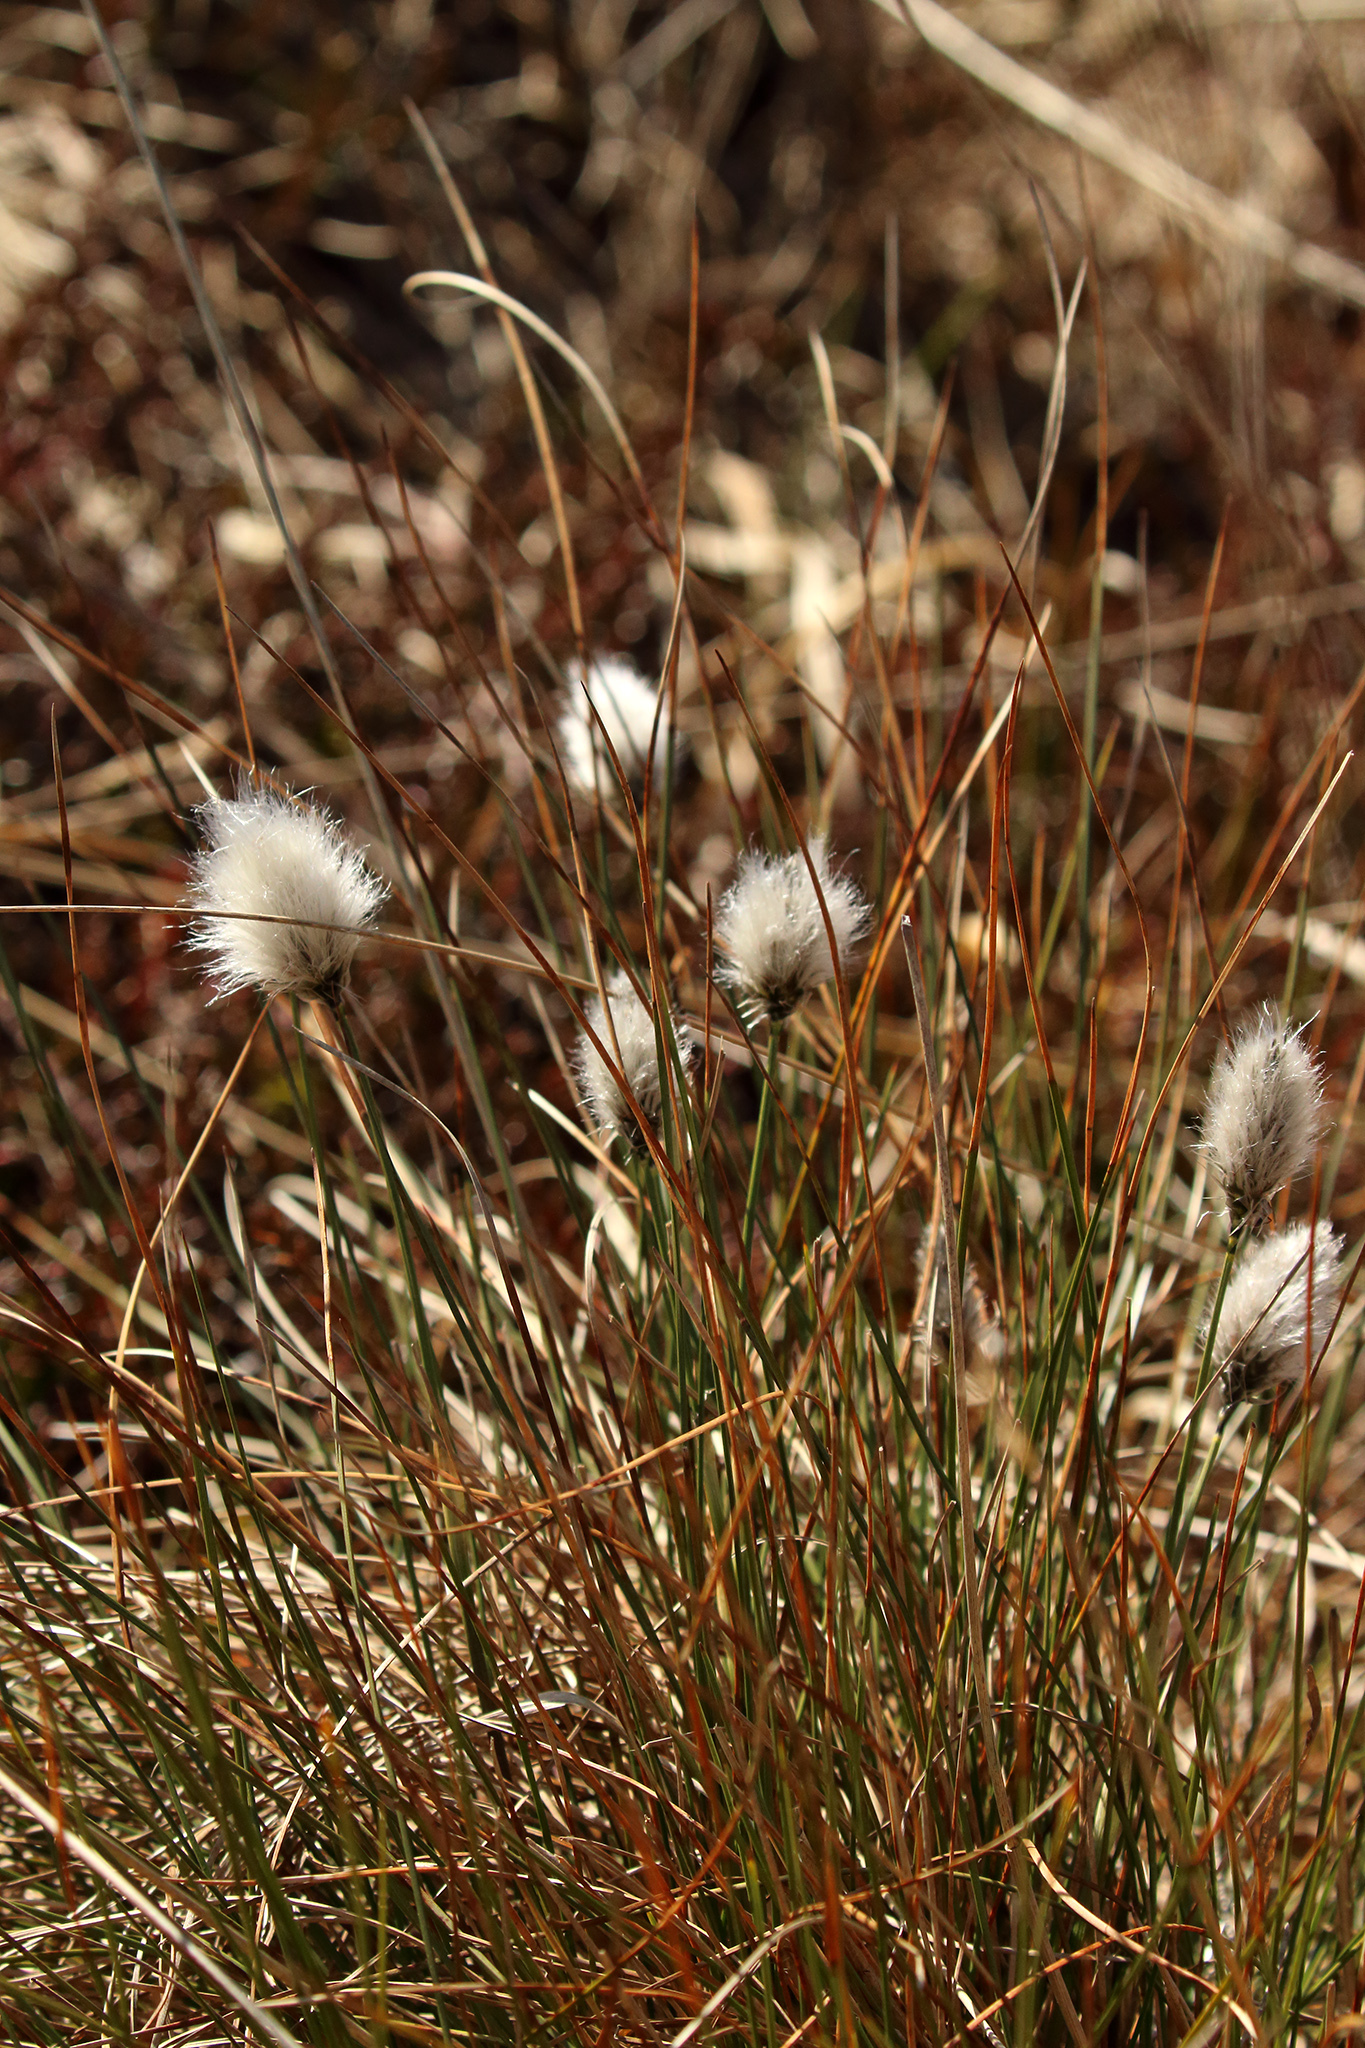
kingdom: Plantae
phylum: Tracheophyta
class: Liliopsida
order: Poales
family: Cyperaceae
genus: Eriophorum
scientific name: Eriophorum vaginatum
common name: Hare's-tail cottongrass
